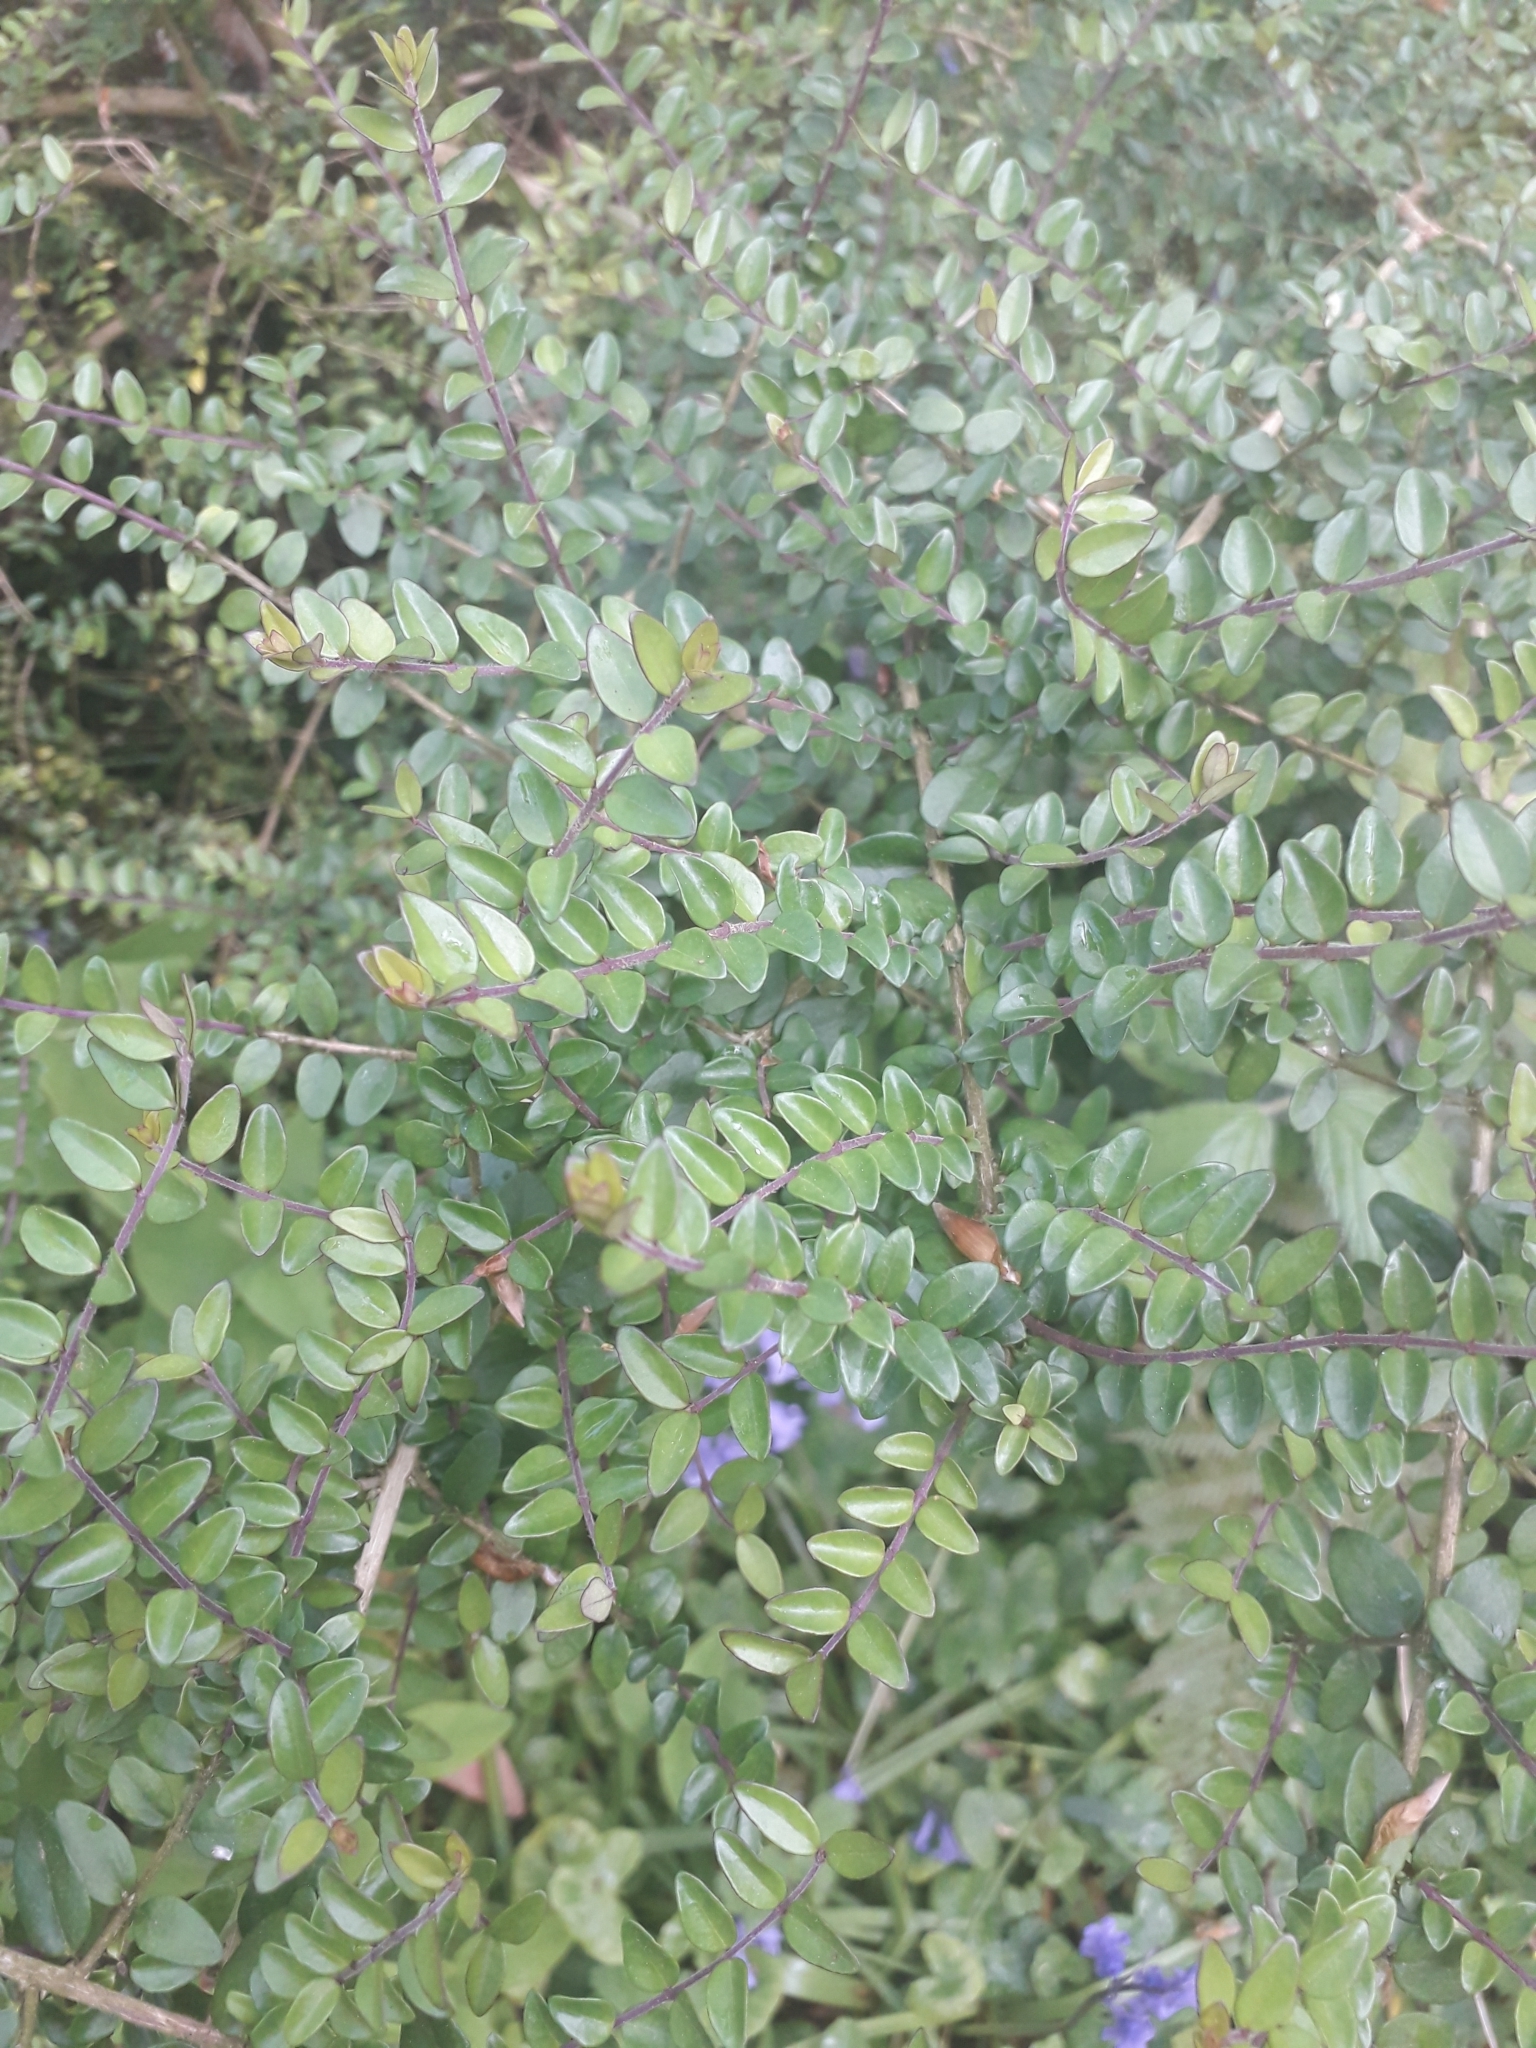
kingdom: Plantae
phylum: Tracheophyta
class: Magnoliopsida
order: Dipsacales
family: Caprifoliaceae
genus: Lonicera
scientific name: Lonicera pileata
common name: Box-leaved honeysuckle
